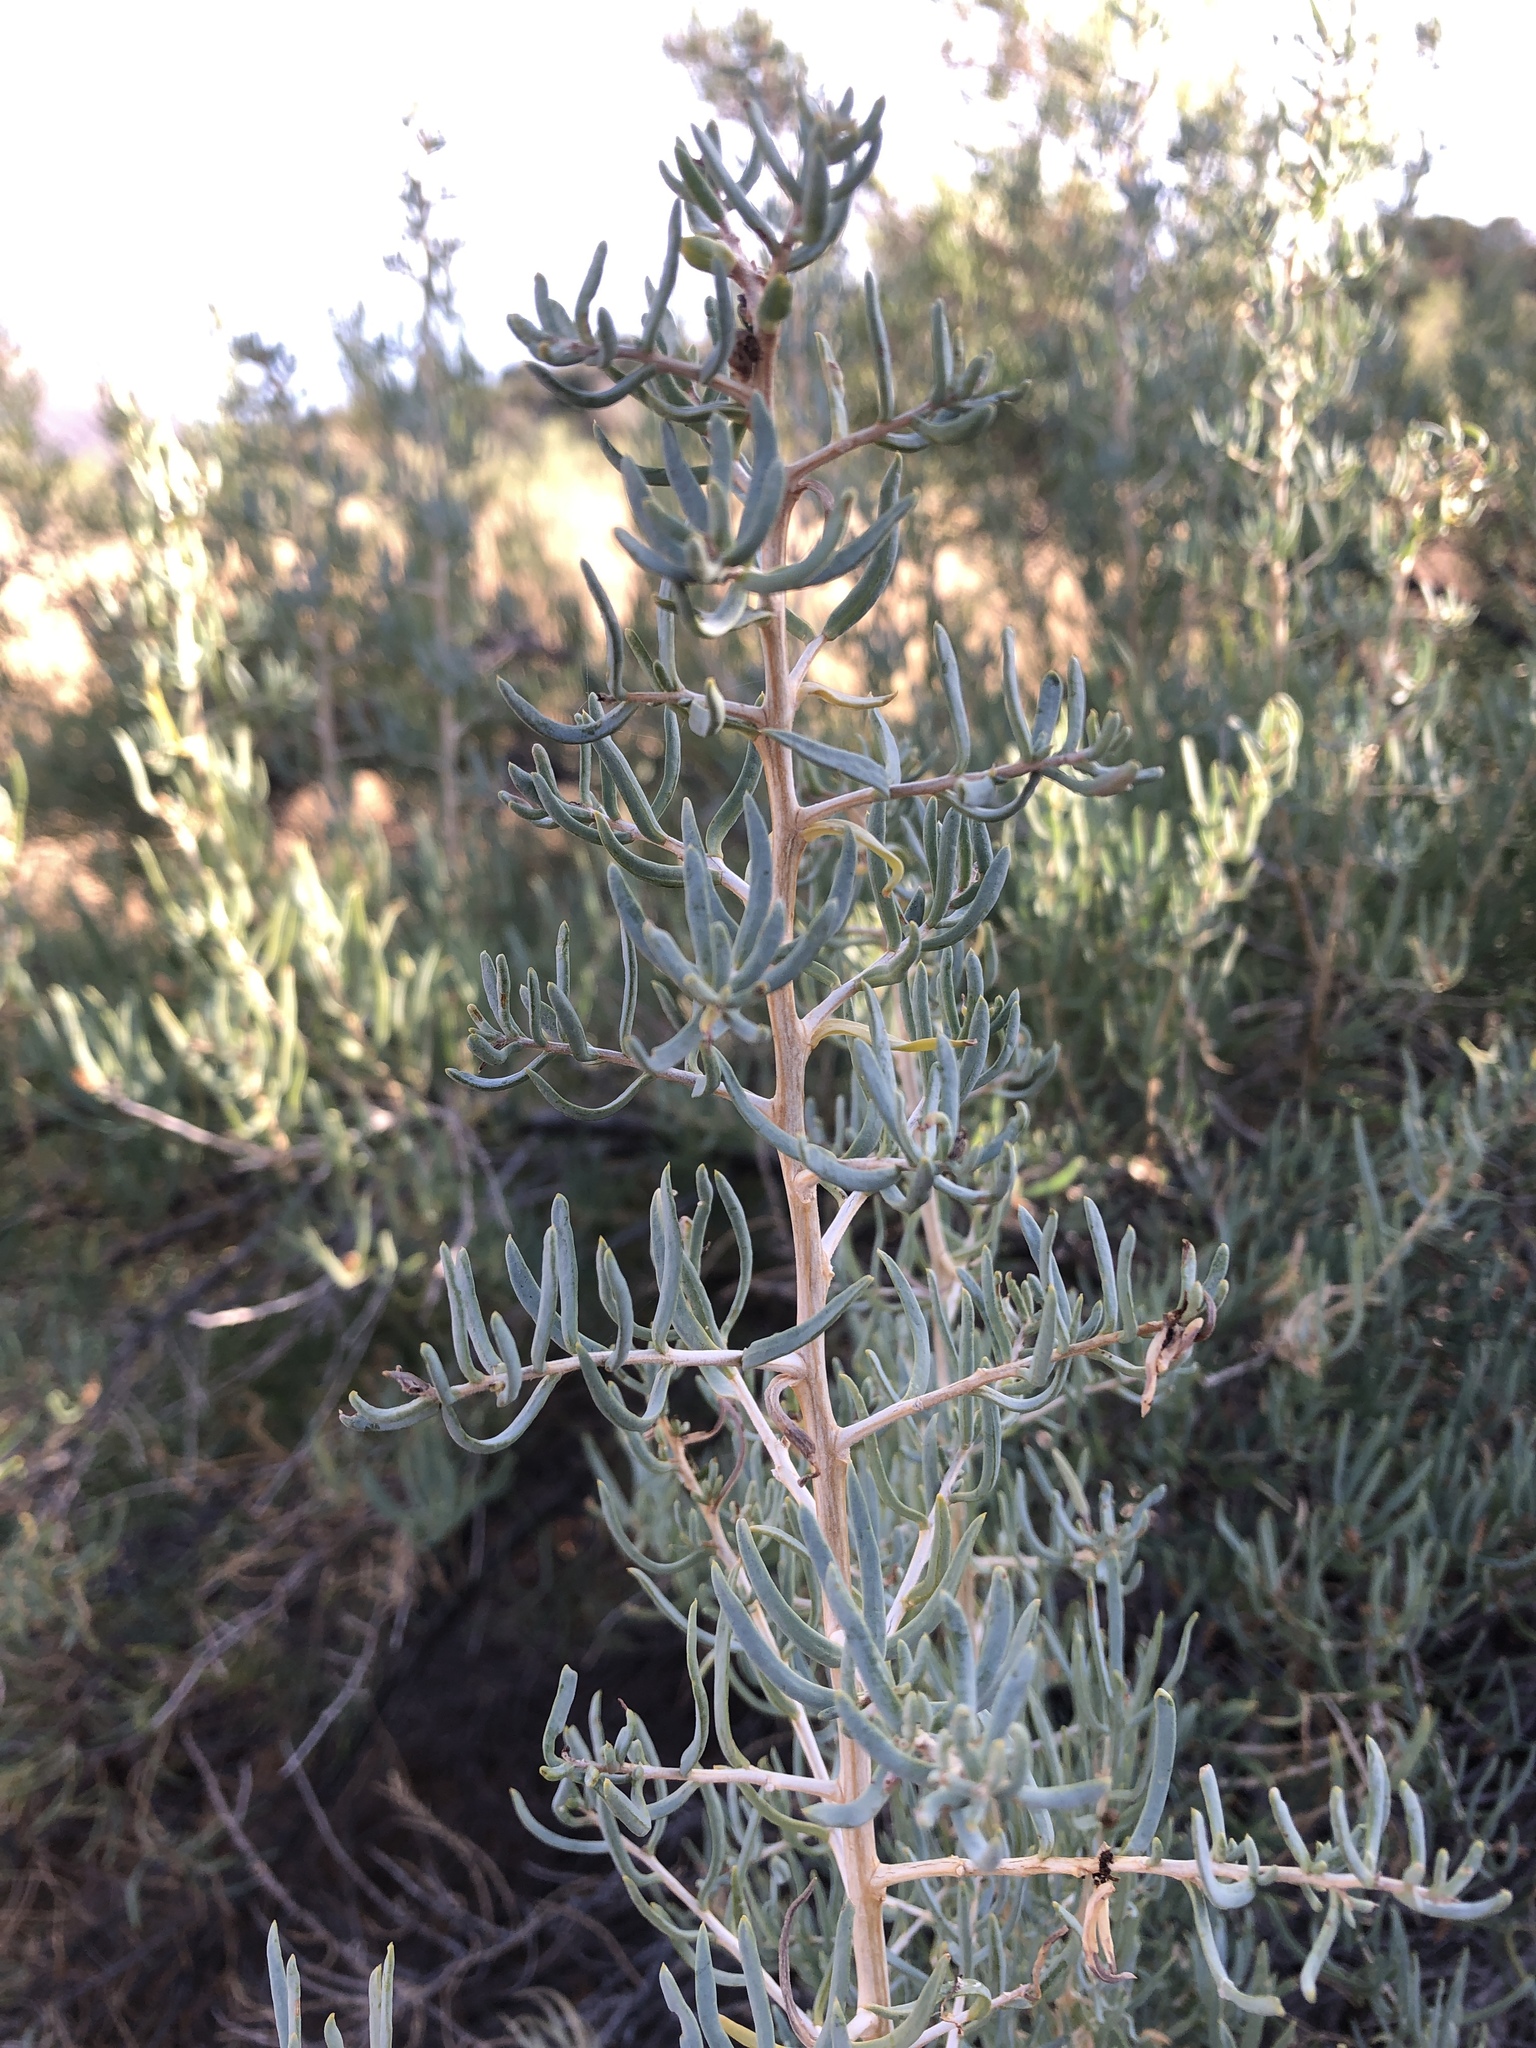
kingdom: Plantae
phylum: Tracheophyta
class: Magnoliopsida
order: Caryophyllales
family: Sarcobataceae
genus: Sarcobatus
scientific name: Sarcobatus vermiculatus
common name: Greasewood
